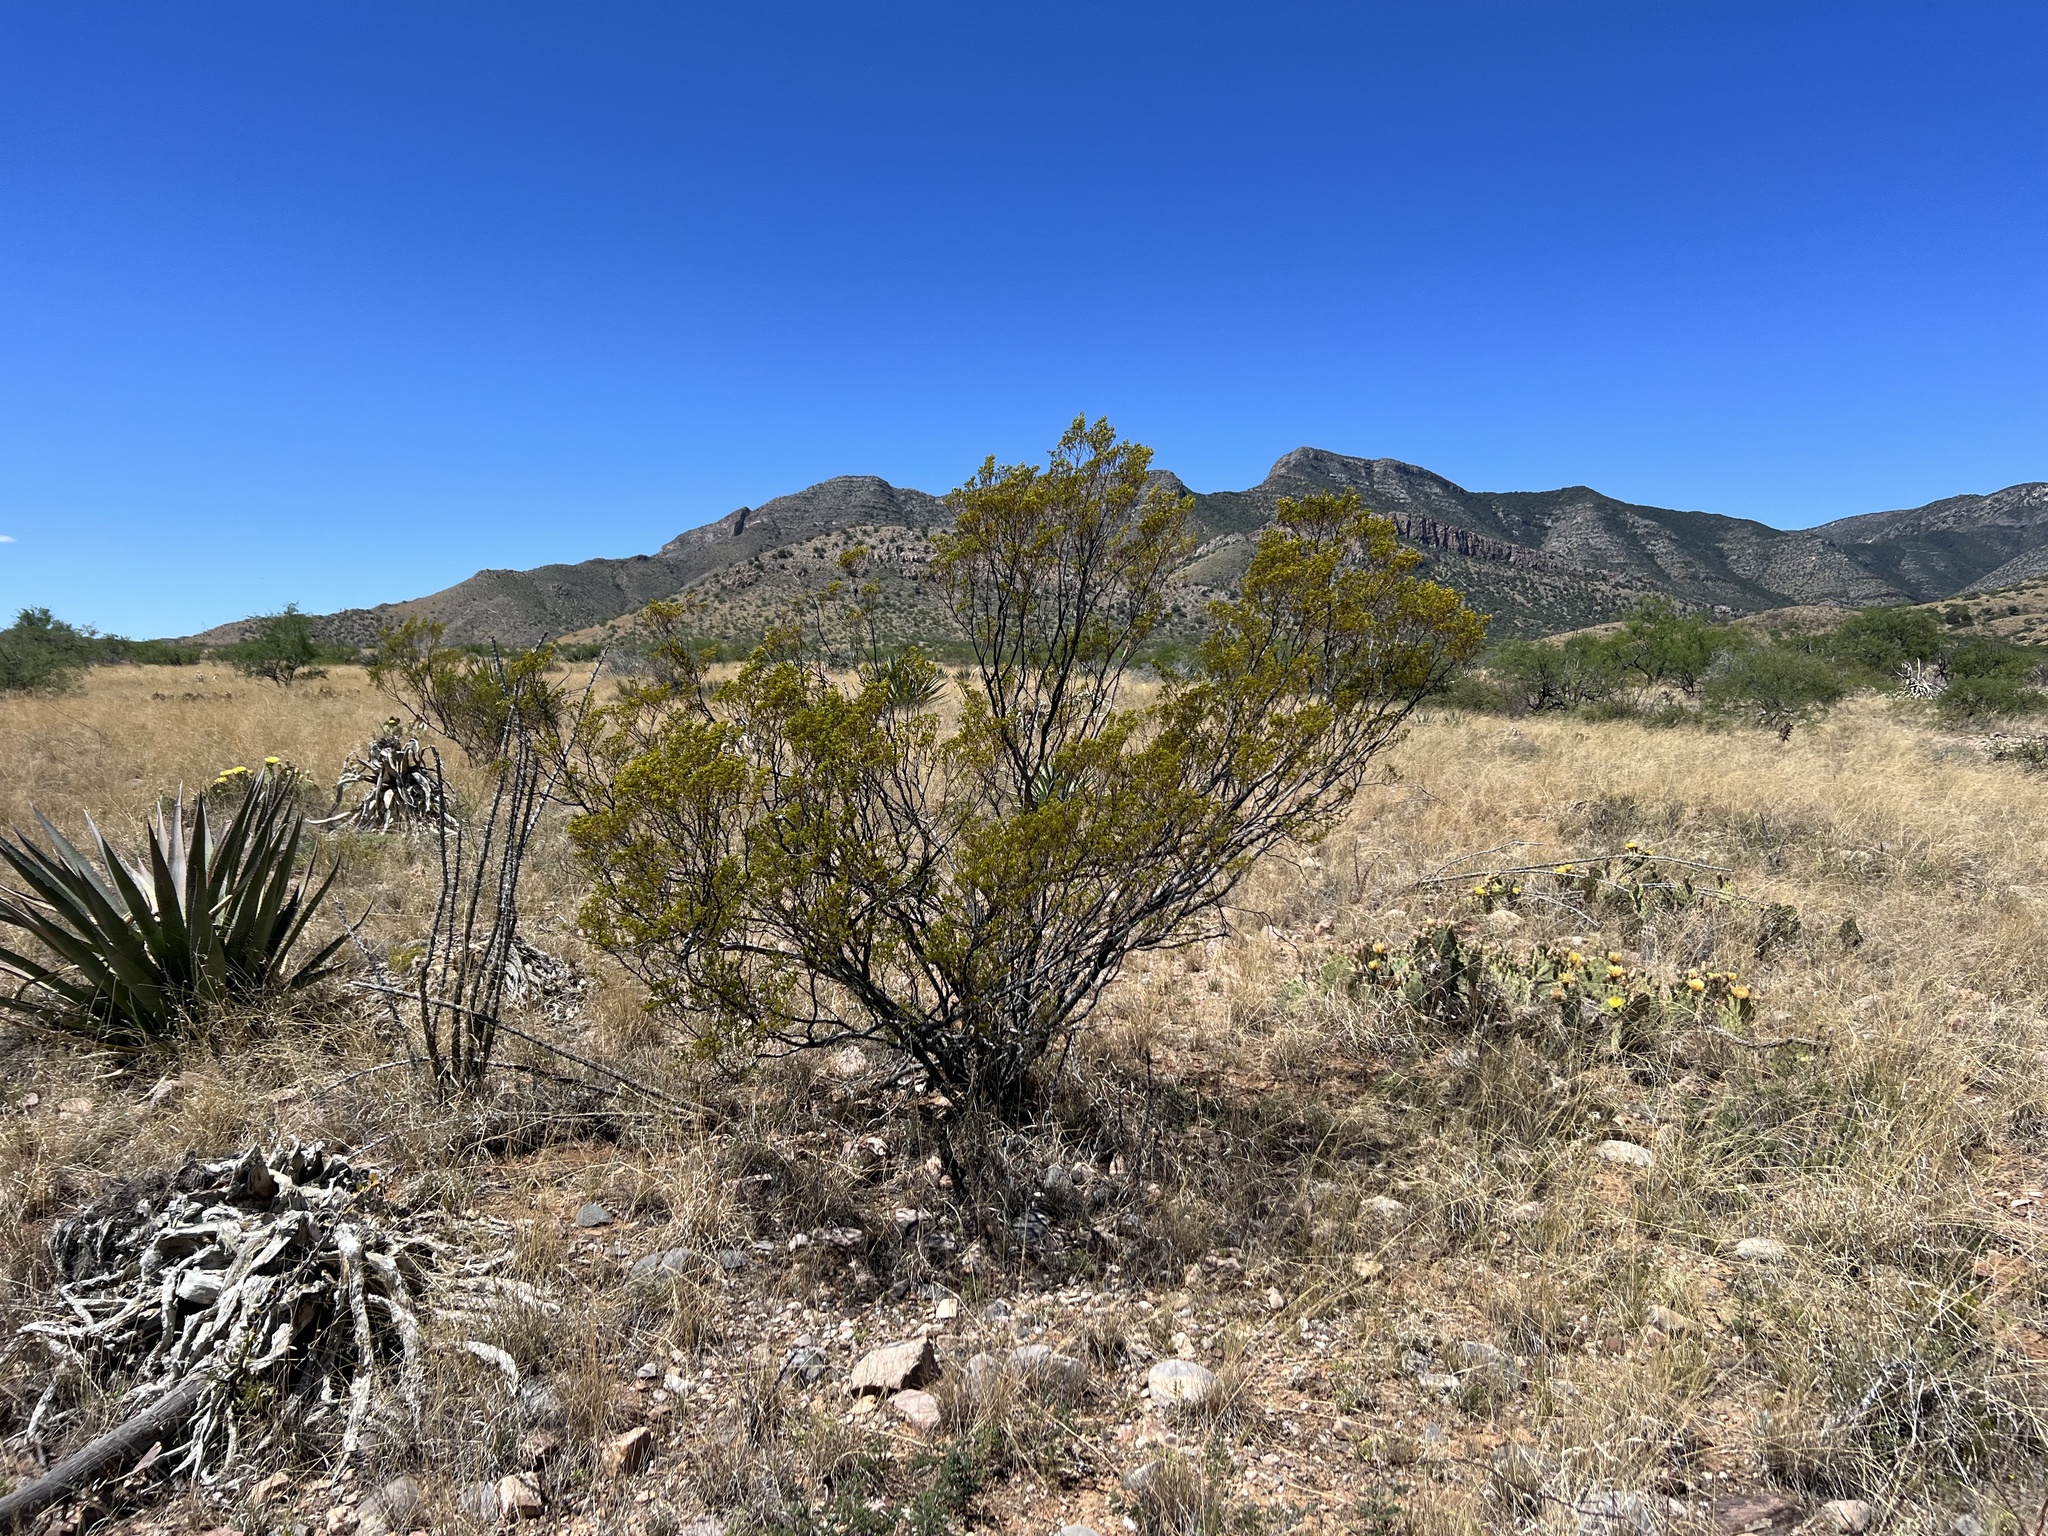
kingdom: Plantae
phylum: Tracheophyta
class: Magnoliopsida
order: Zygophyllales
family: Zygophyllaceae
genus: Larrea
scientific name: Larrea tridentata
